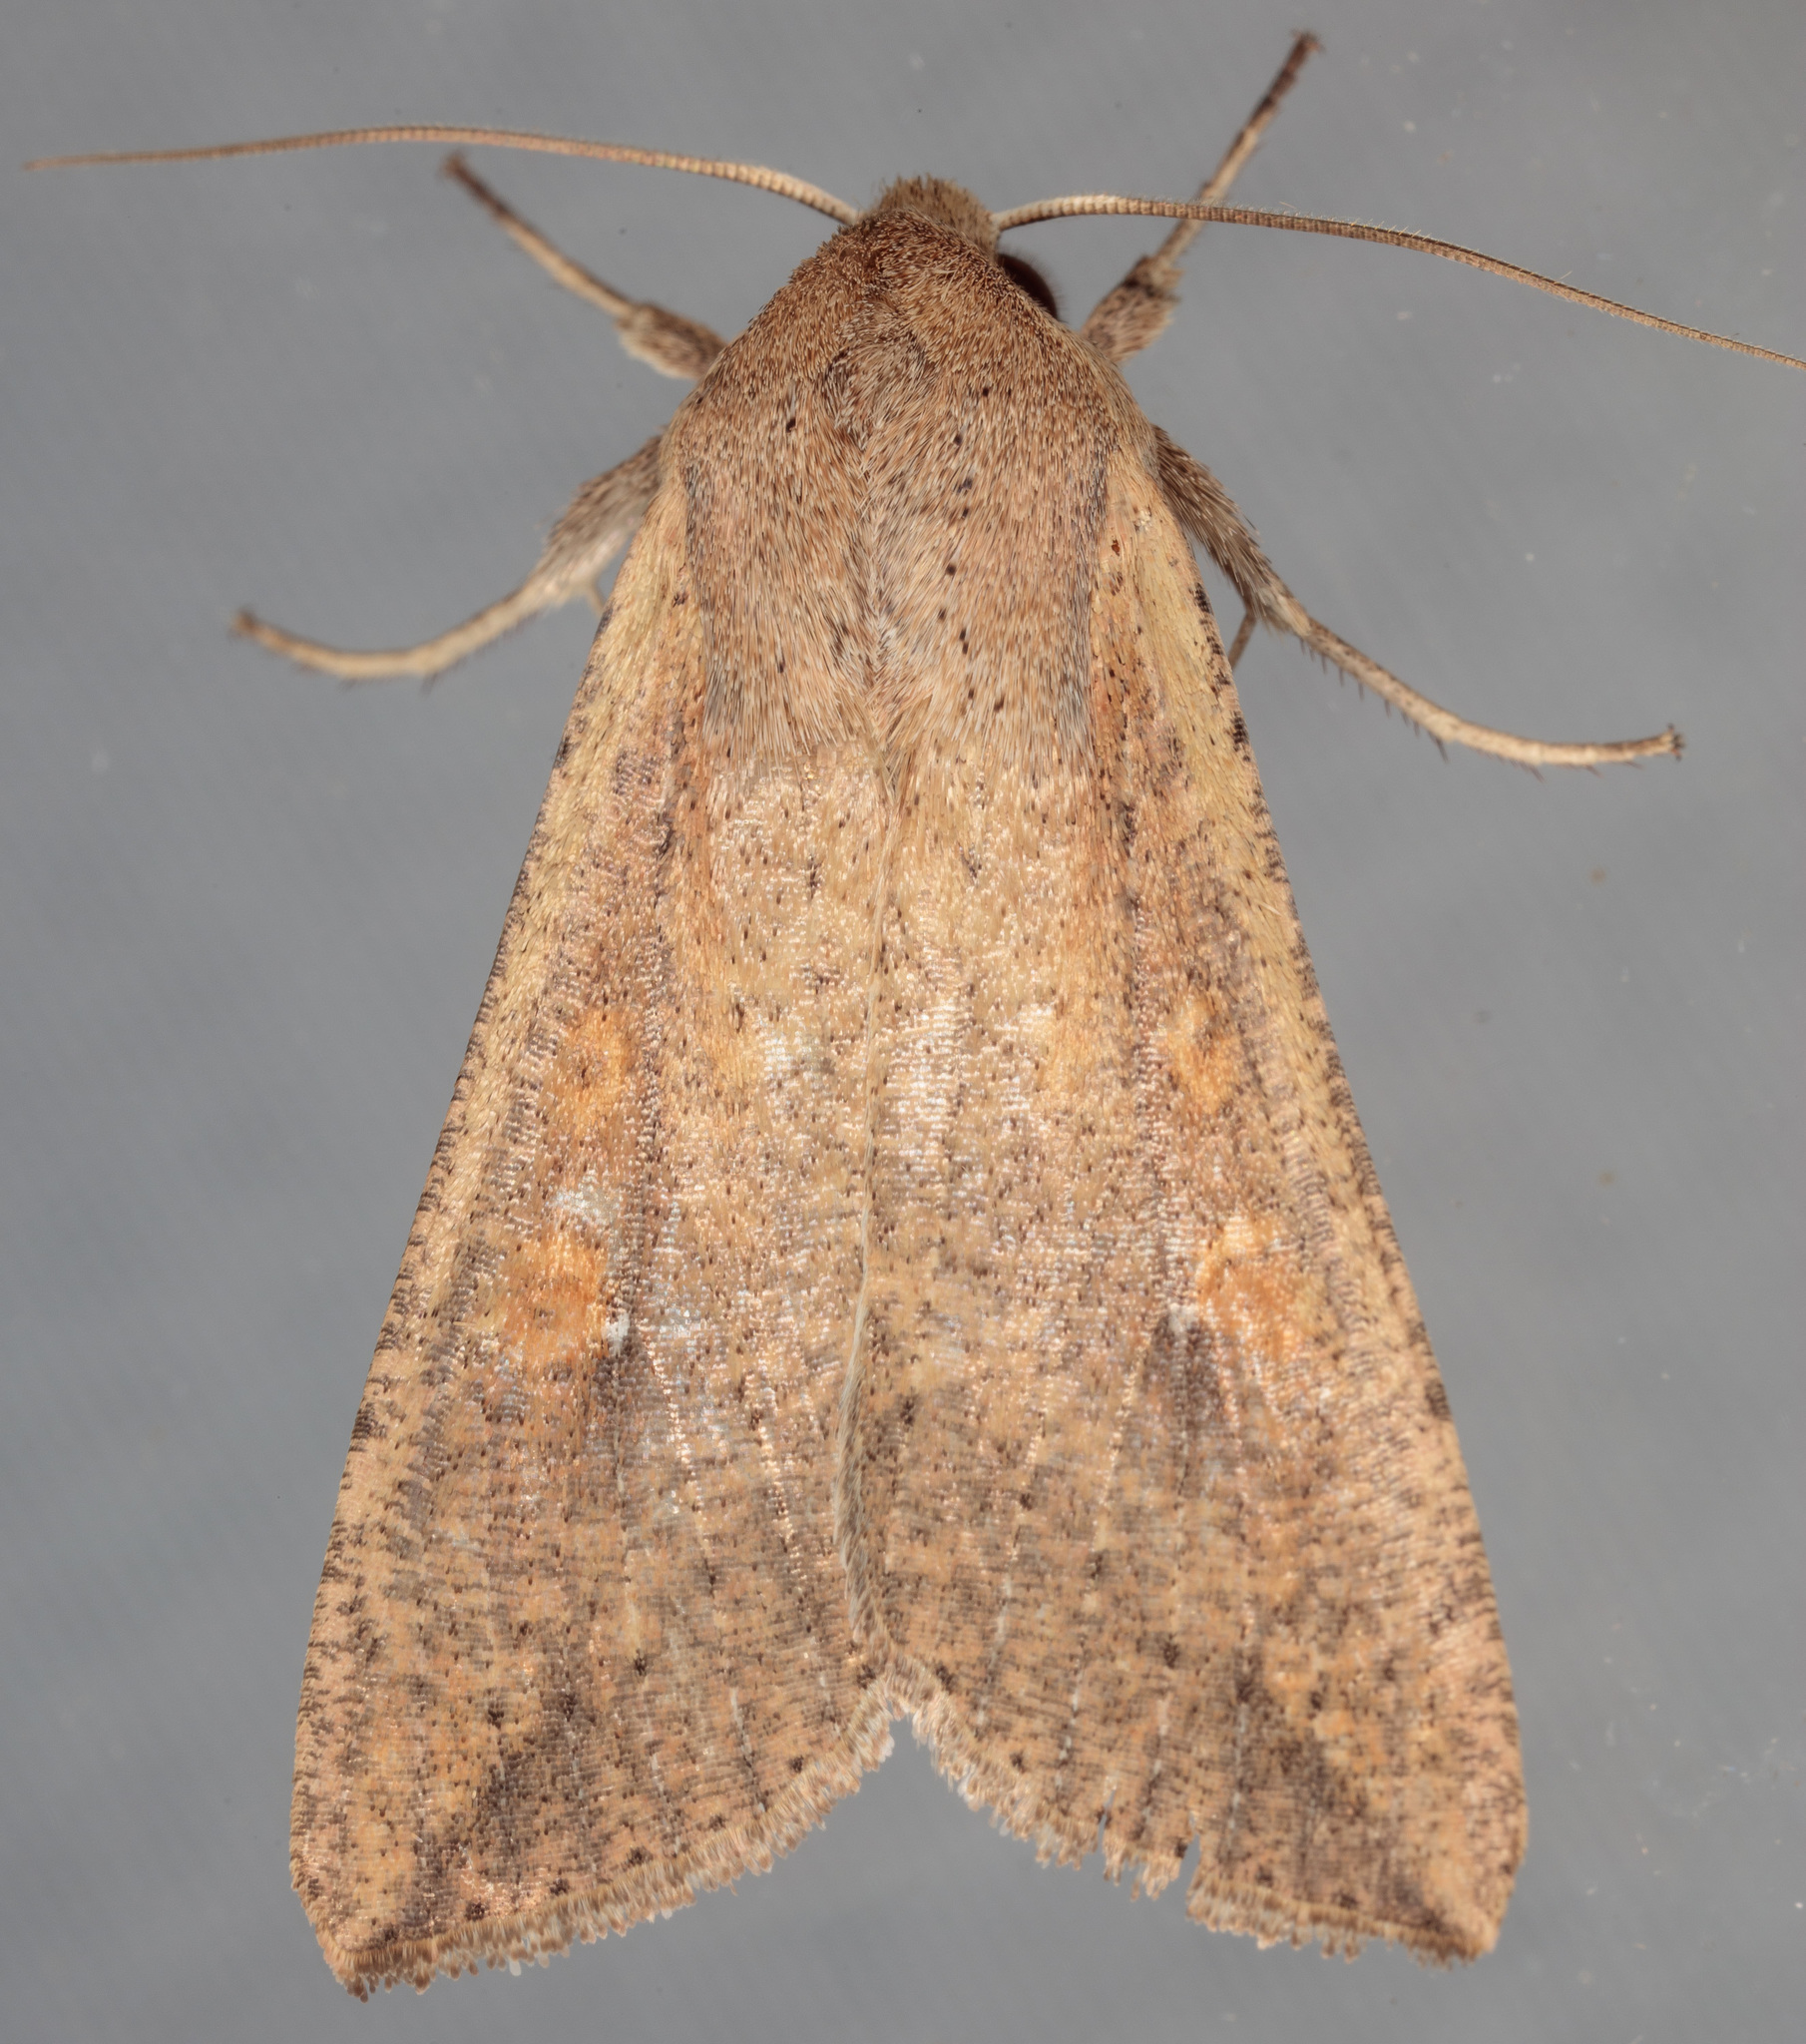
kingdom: Animalia
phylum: Arthropoda
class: Insecta
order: Lepidoptera
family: Noctuidae
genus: Mythimna
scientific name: Mythimna unipuncta
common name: White-speck
